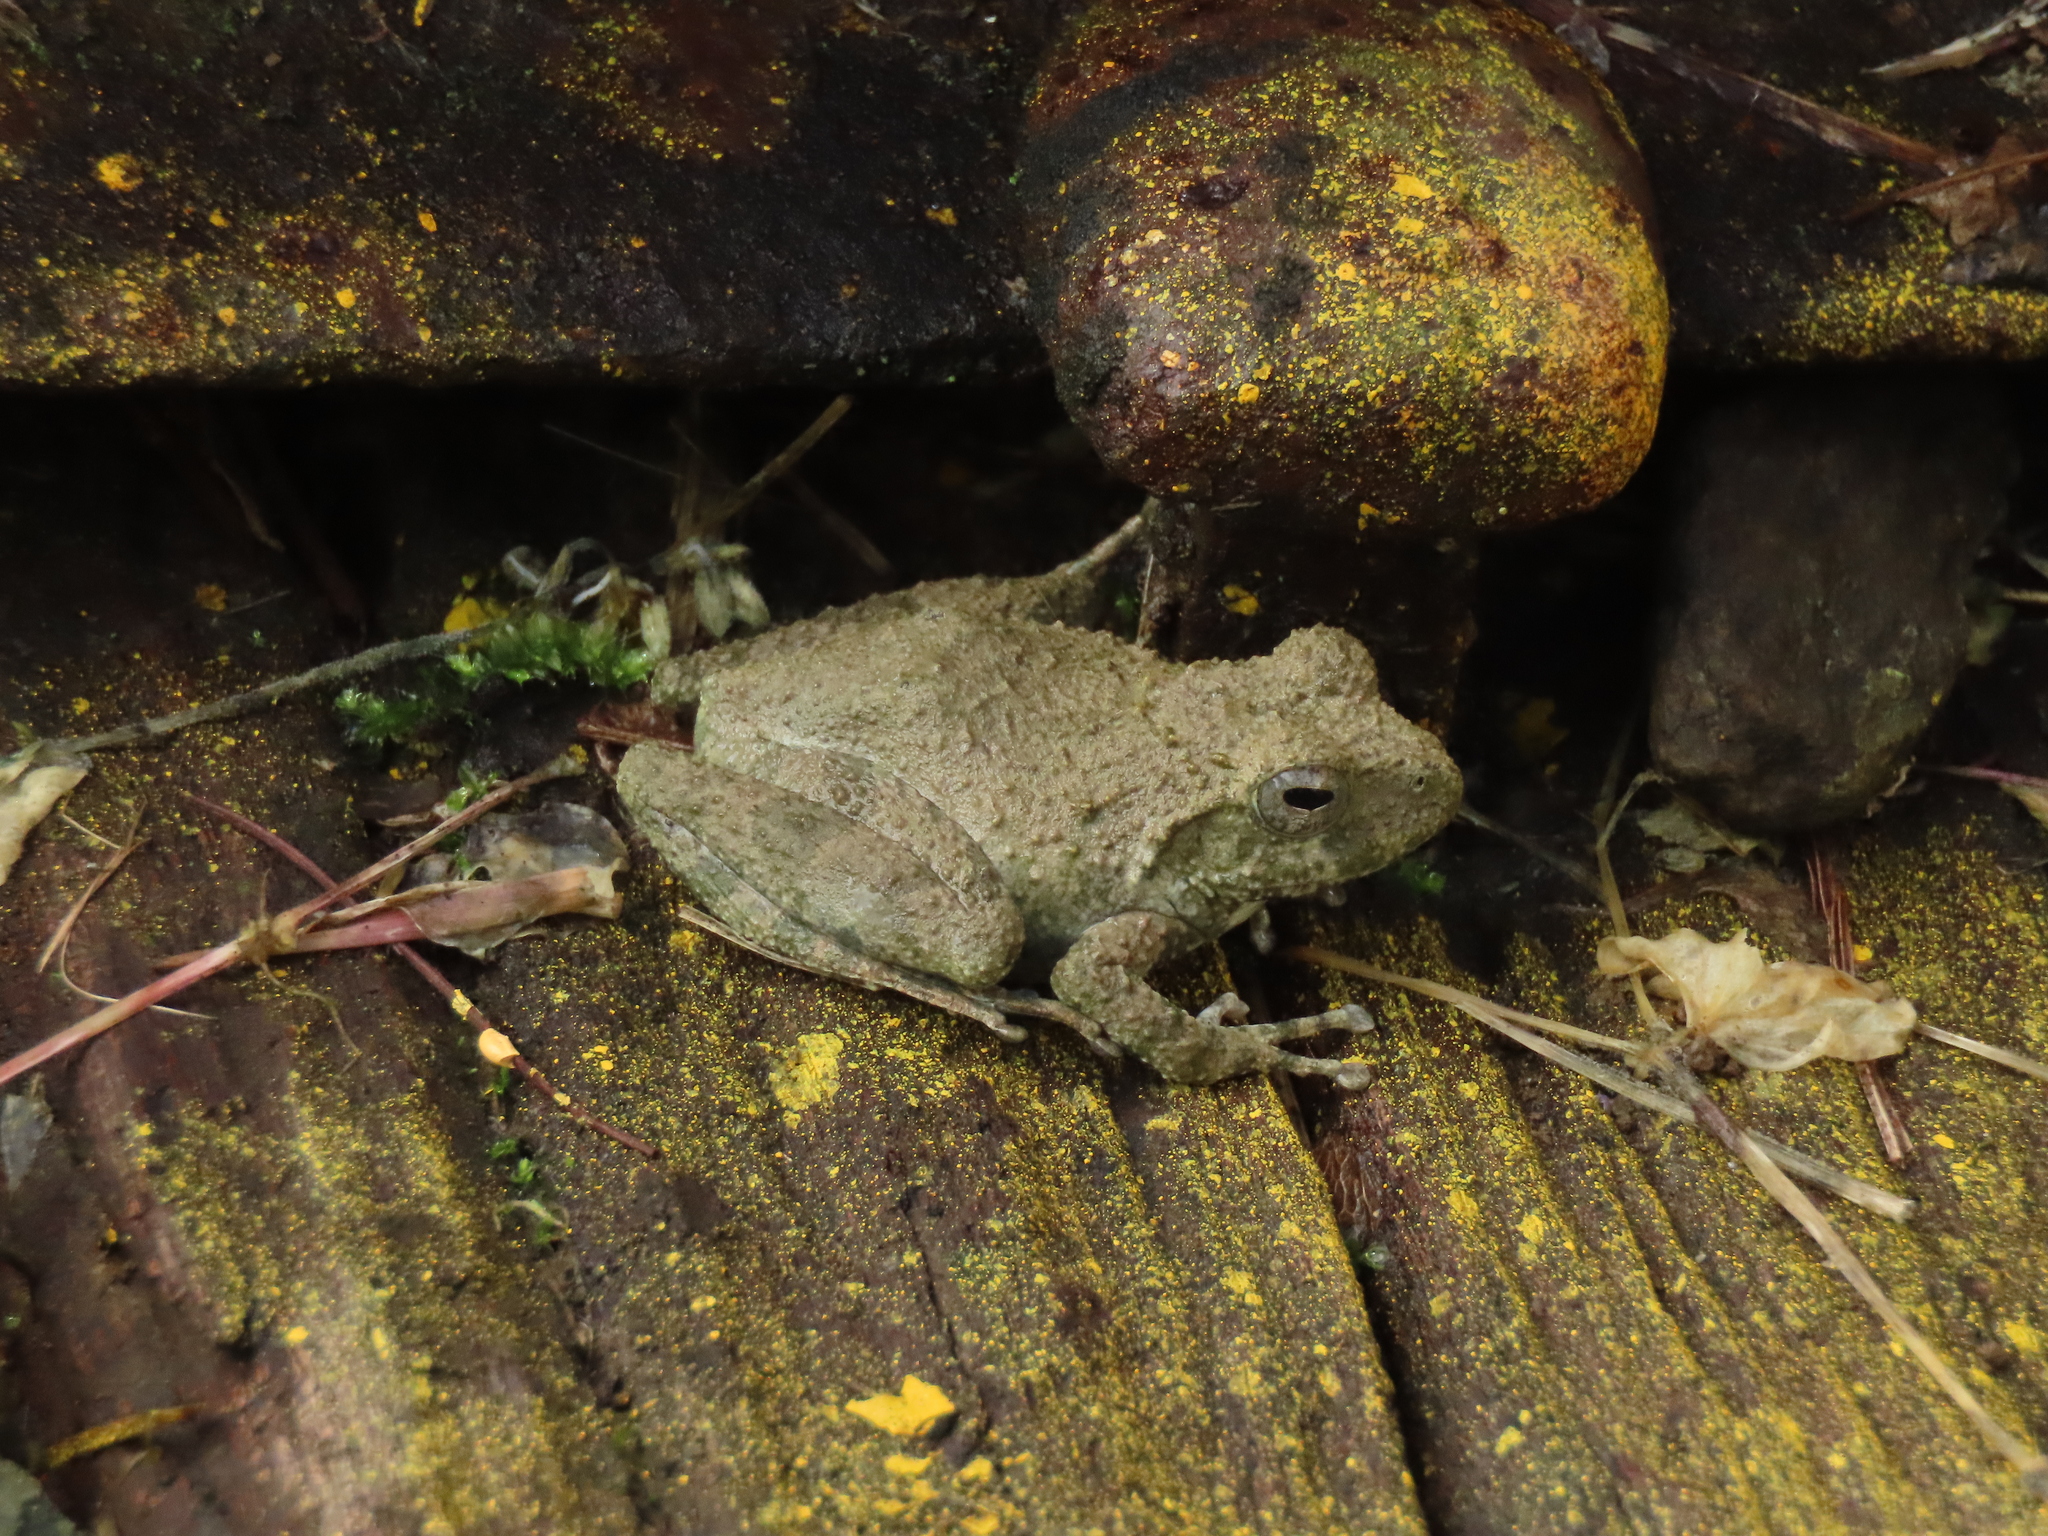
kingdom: Animalia
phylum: Chordata
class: Amphibia
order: Anura
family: Rhacophoridae
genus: Buergeria
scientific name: Buergeria otai
